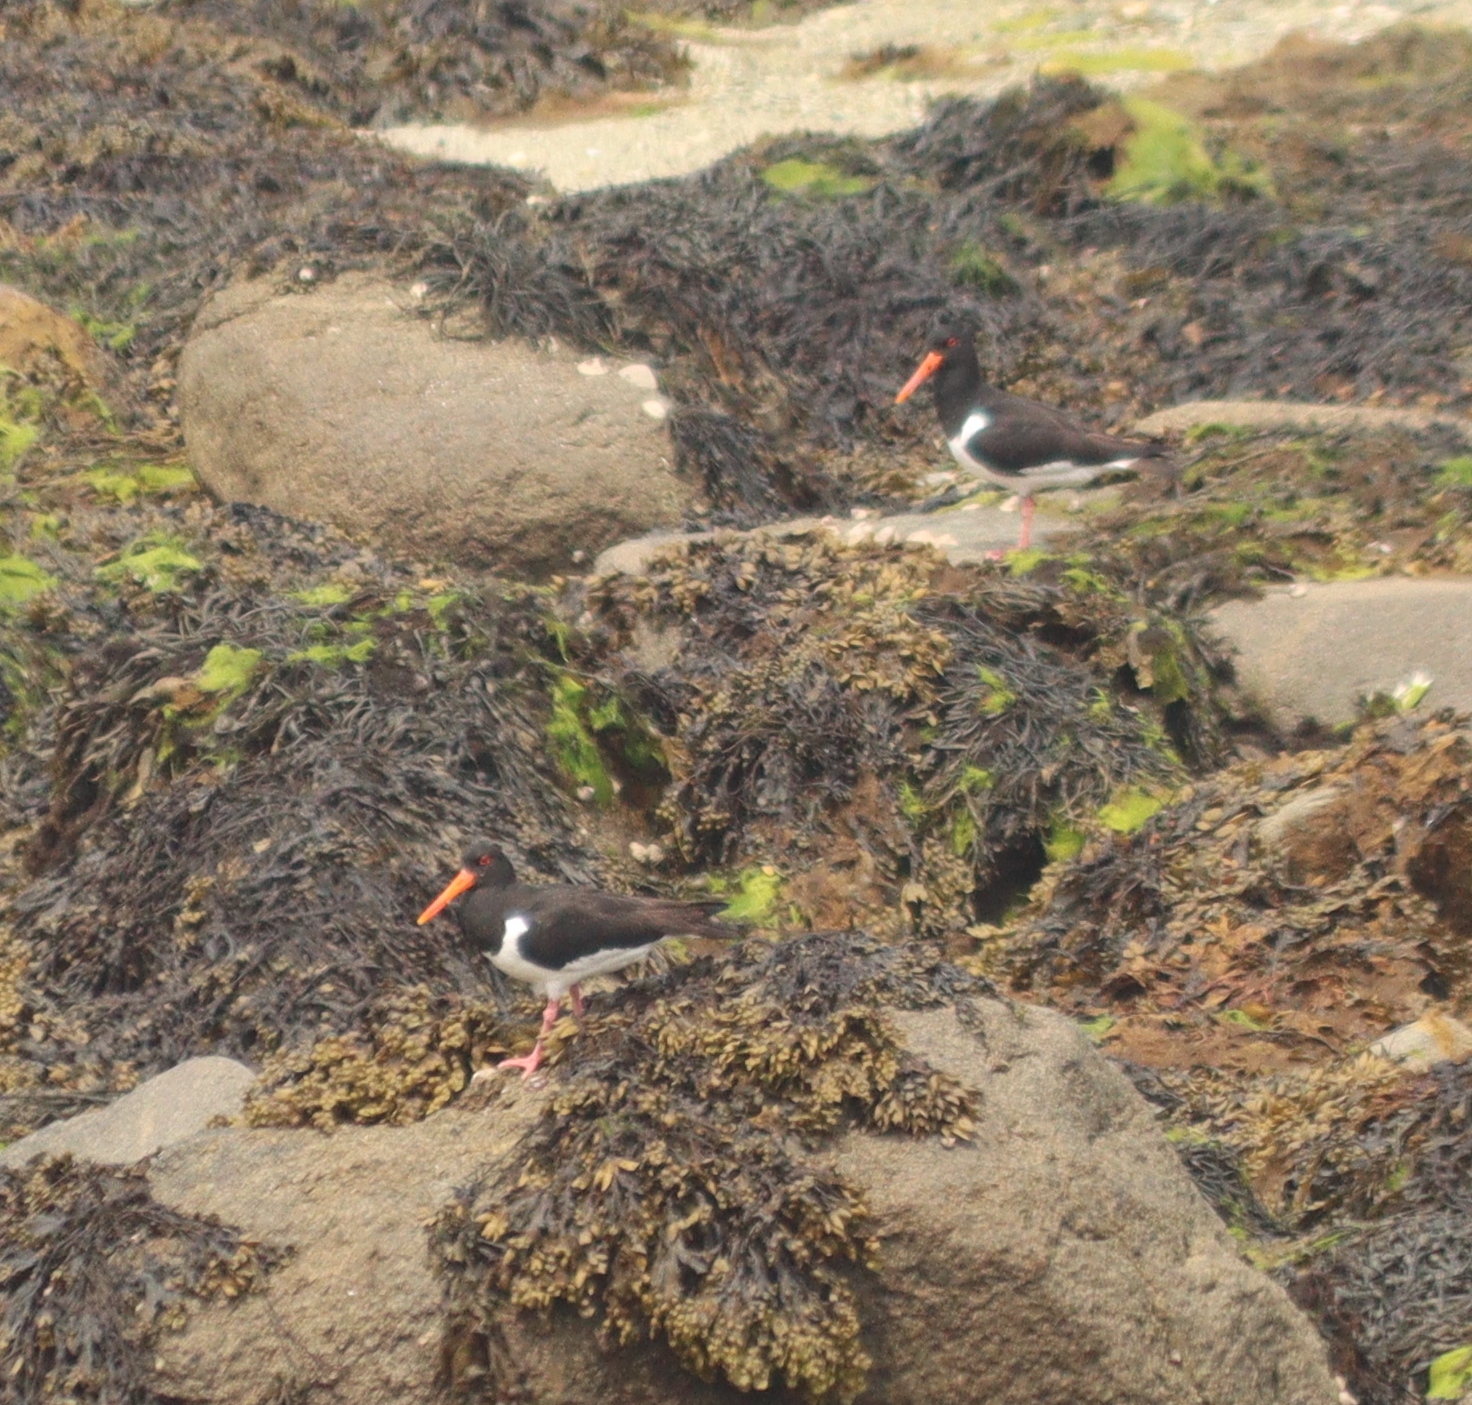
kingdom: Animalia
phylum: Chordata
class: Aves
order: Charadriiformes
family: Haematopodidae
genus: Haematopus
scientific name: Haematopus ostralegus
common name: Eurasian oystercatcher
